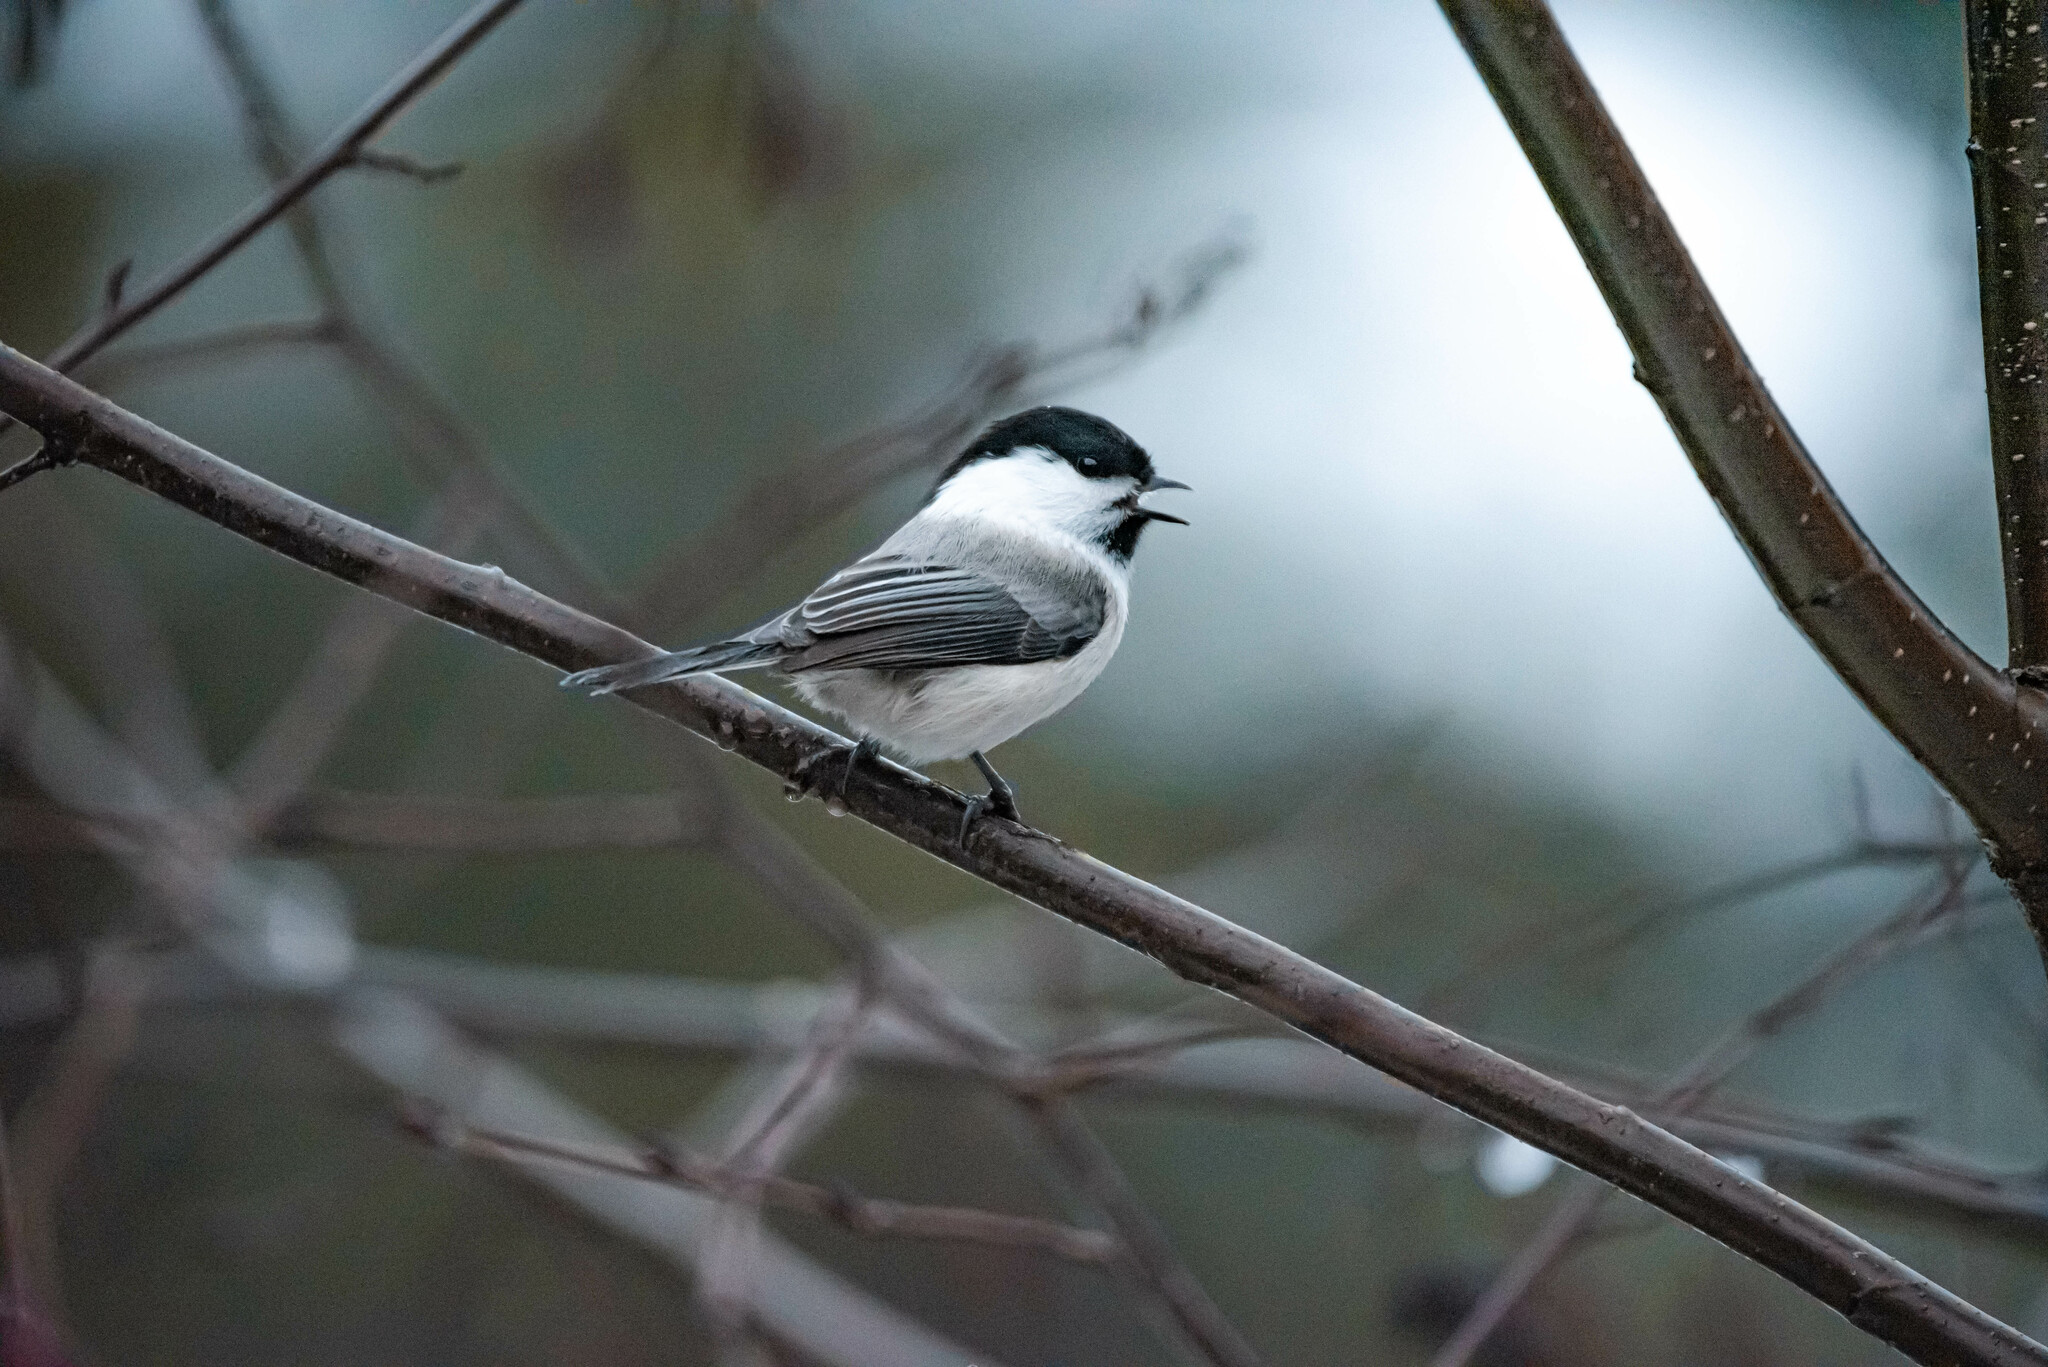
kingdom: Animalia
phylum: Chordata
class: Aves
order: Passeriformes
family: Paridae
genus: Poecile
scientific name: Poecile montanus
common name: Willow tit
